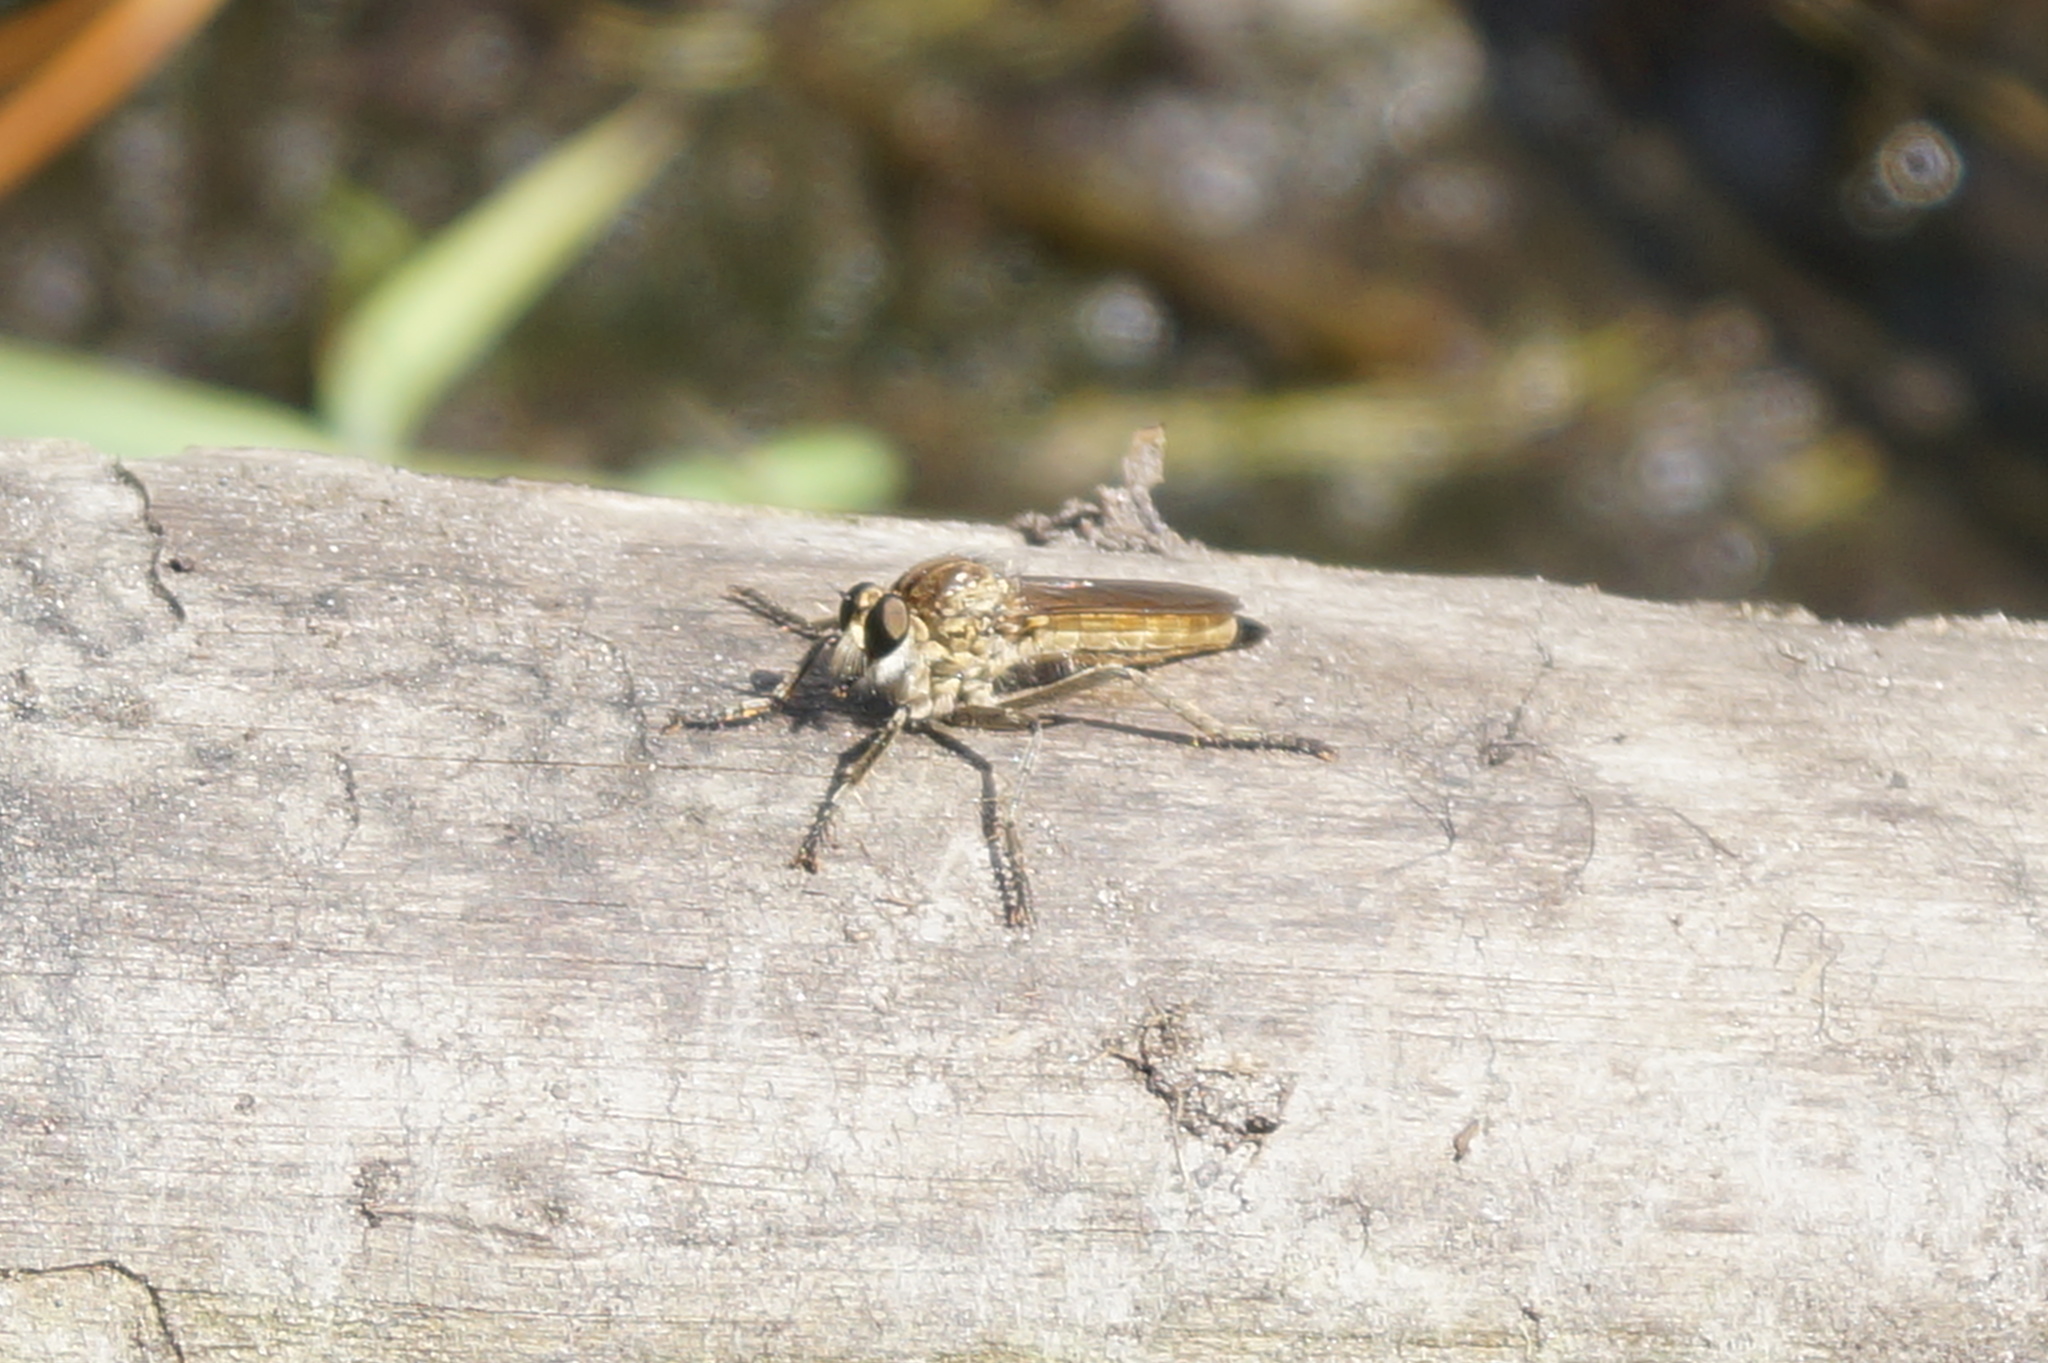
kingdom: Animalia
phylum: Arthropoda
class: Insecta
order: Diptera
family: Asilidae
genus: Philonicus
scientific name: Philonicus albiceps
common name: Dune robberfly
